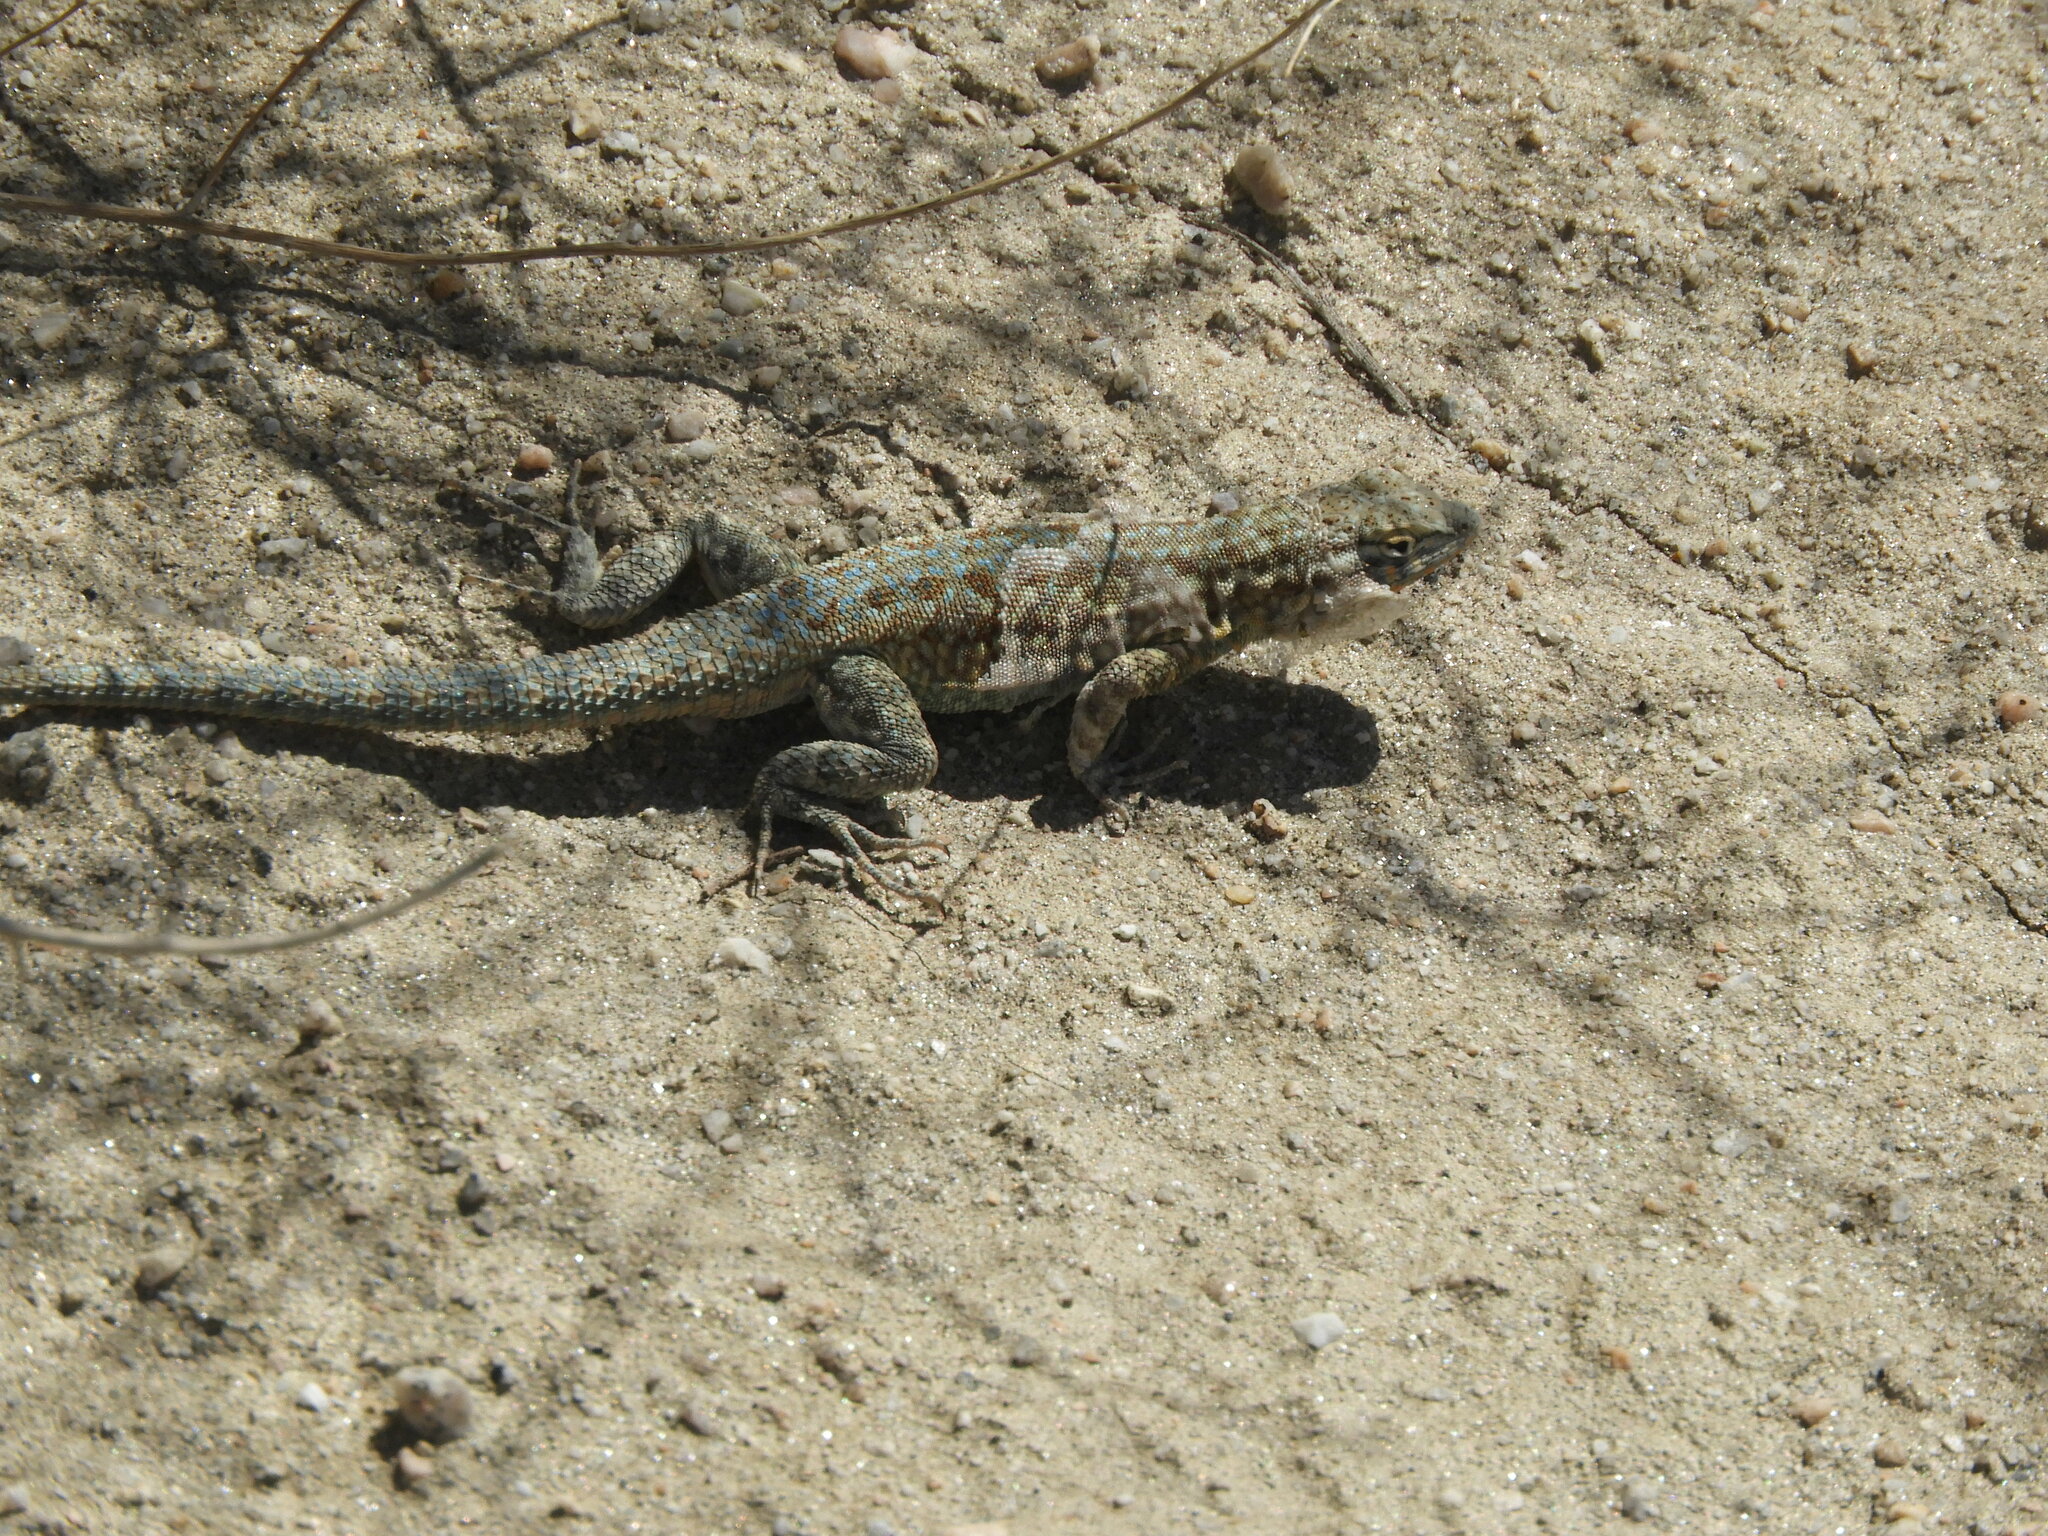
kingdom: Animalia
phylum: Chordata
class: Squamata
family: Phrynosomatidae
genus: Uta
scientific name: Uta stansburiana
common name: Side-blotched lizard
